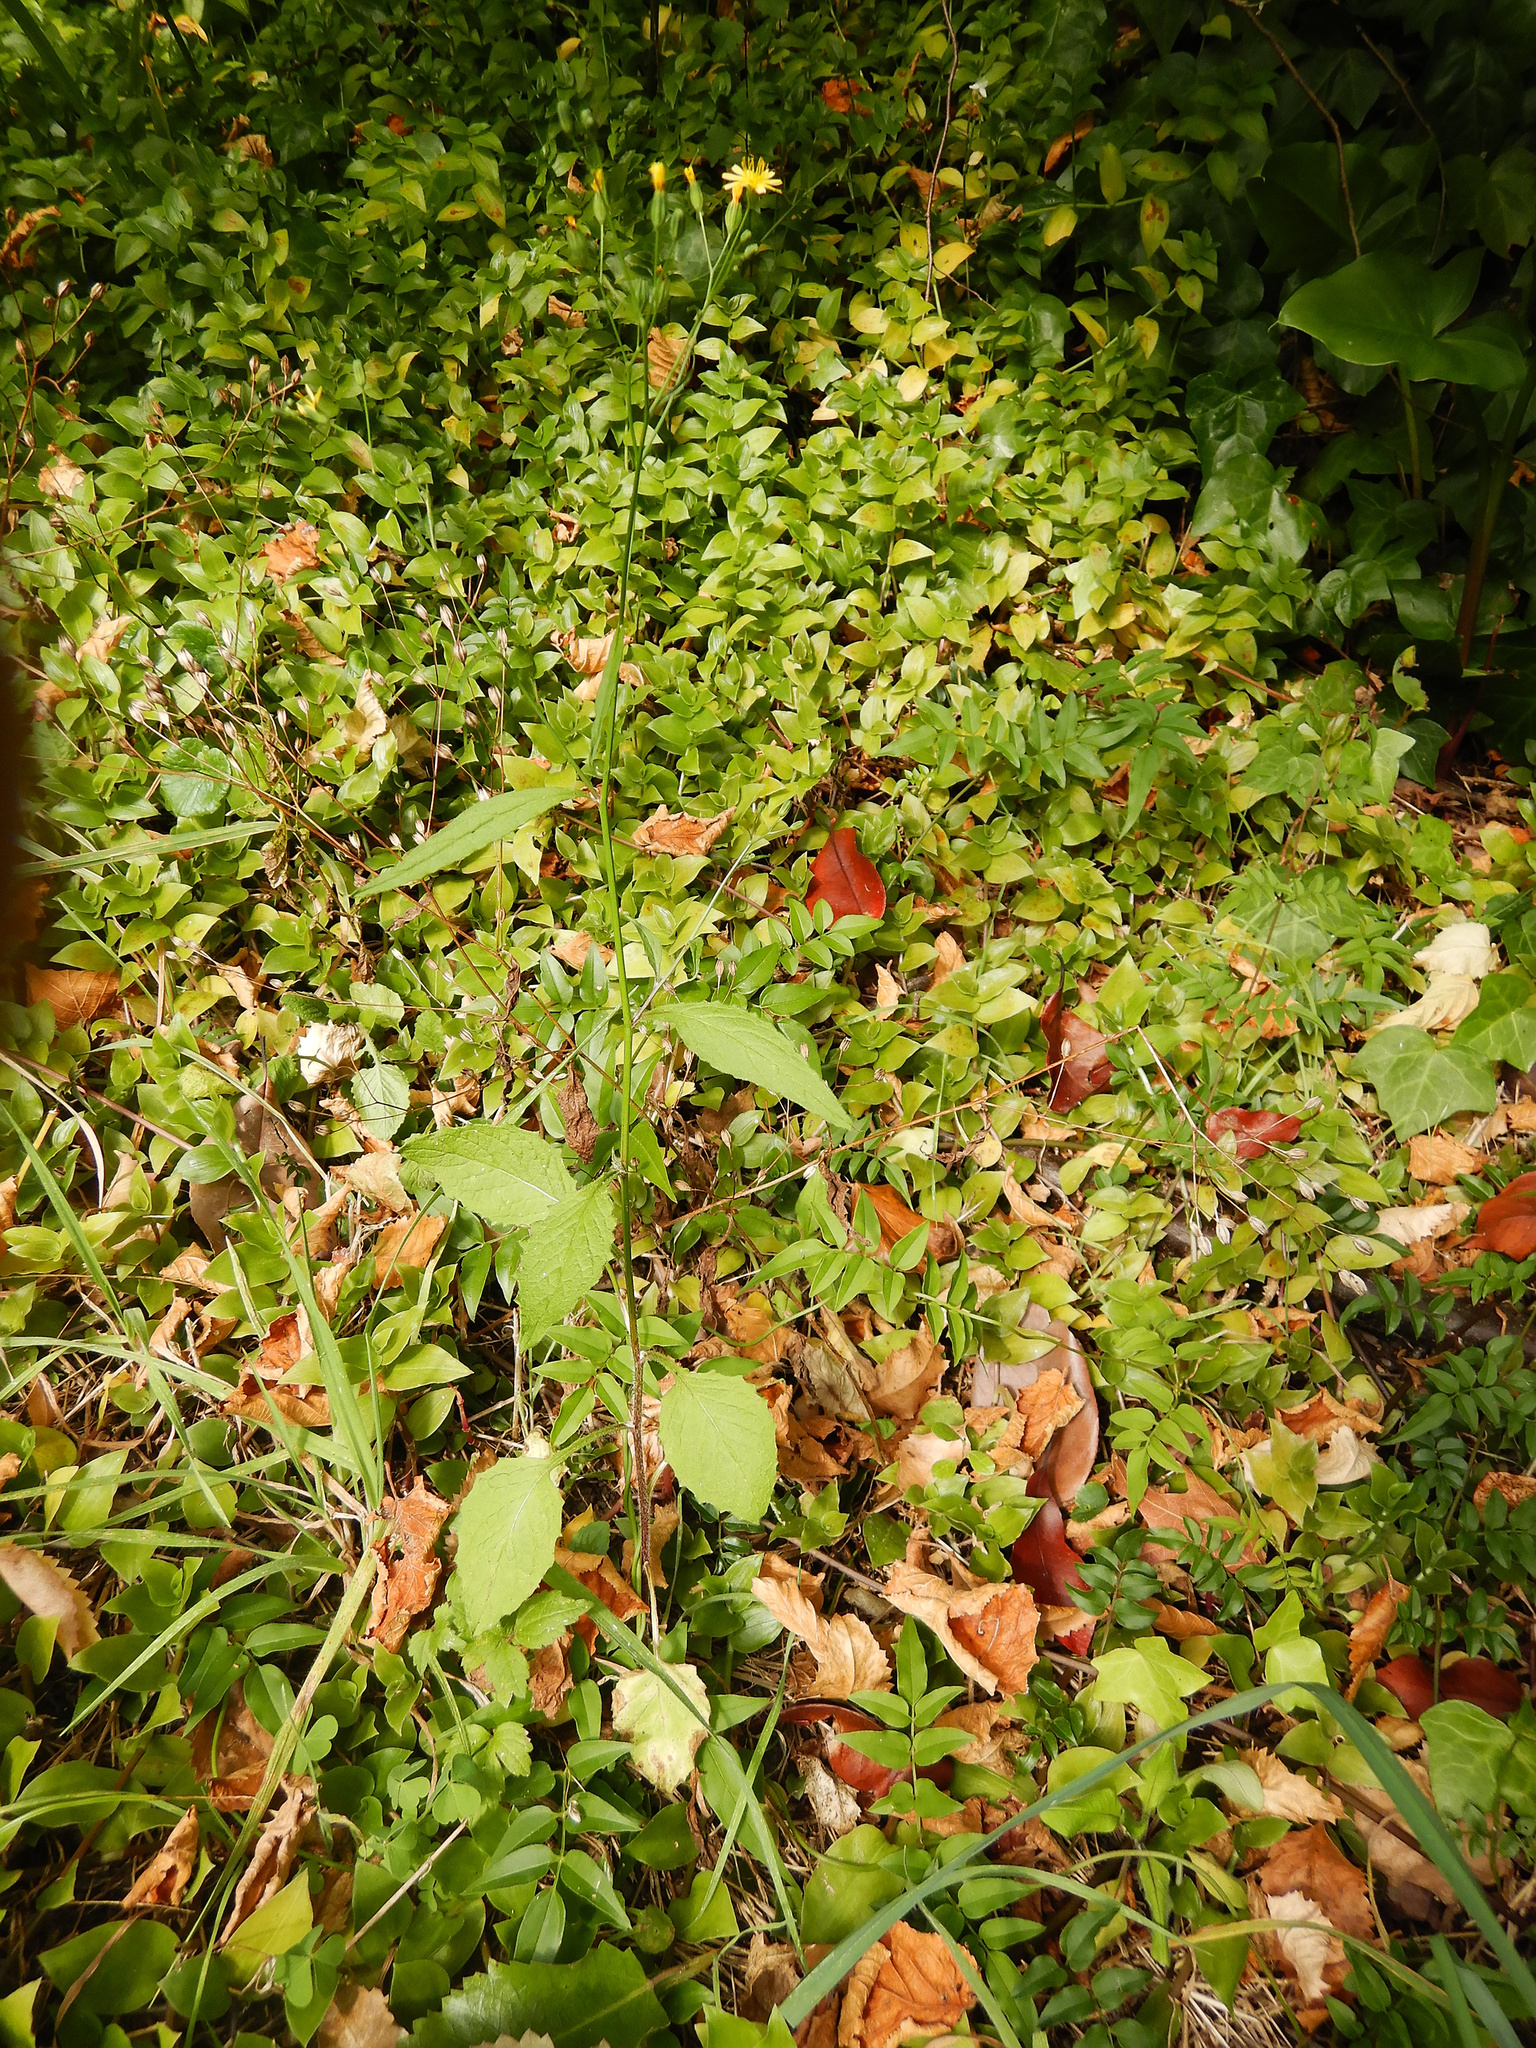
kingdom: Plantae
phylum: Tracheophyta
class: Magnoliopsida
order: Asterales
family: Asteraceae
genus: Lapsana
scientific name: Lapsana communis
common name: Nipplewort
